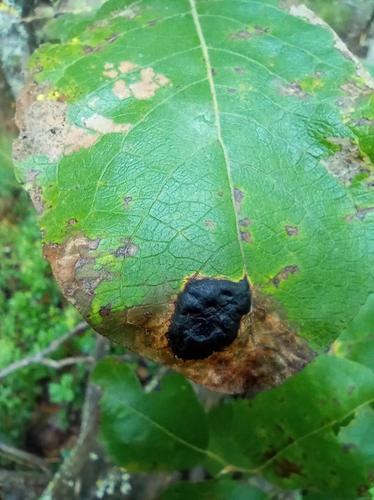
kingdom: Fungi
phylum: Ascomycota
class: Leotiomycetes
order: Rhytismatales
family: Rhytismataceae
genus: Rhytisma
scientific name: Rhytisma salicinum
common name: Willow tarspot
